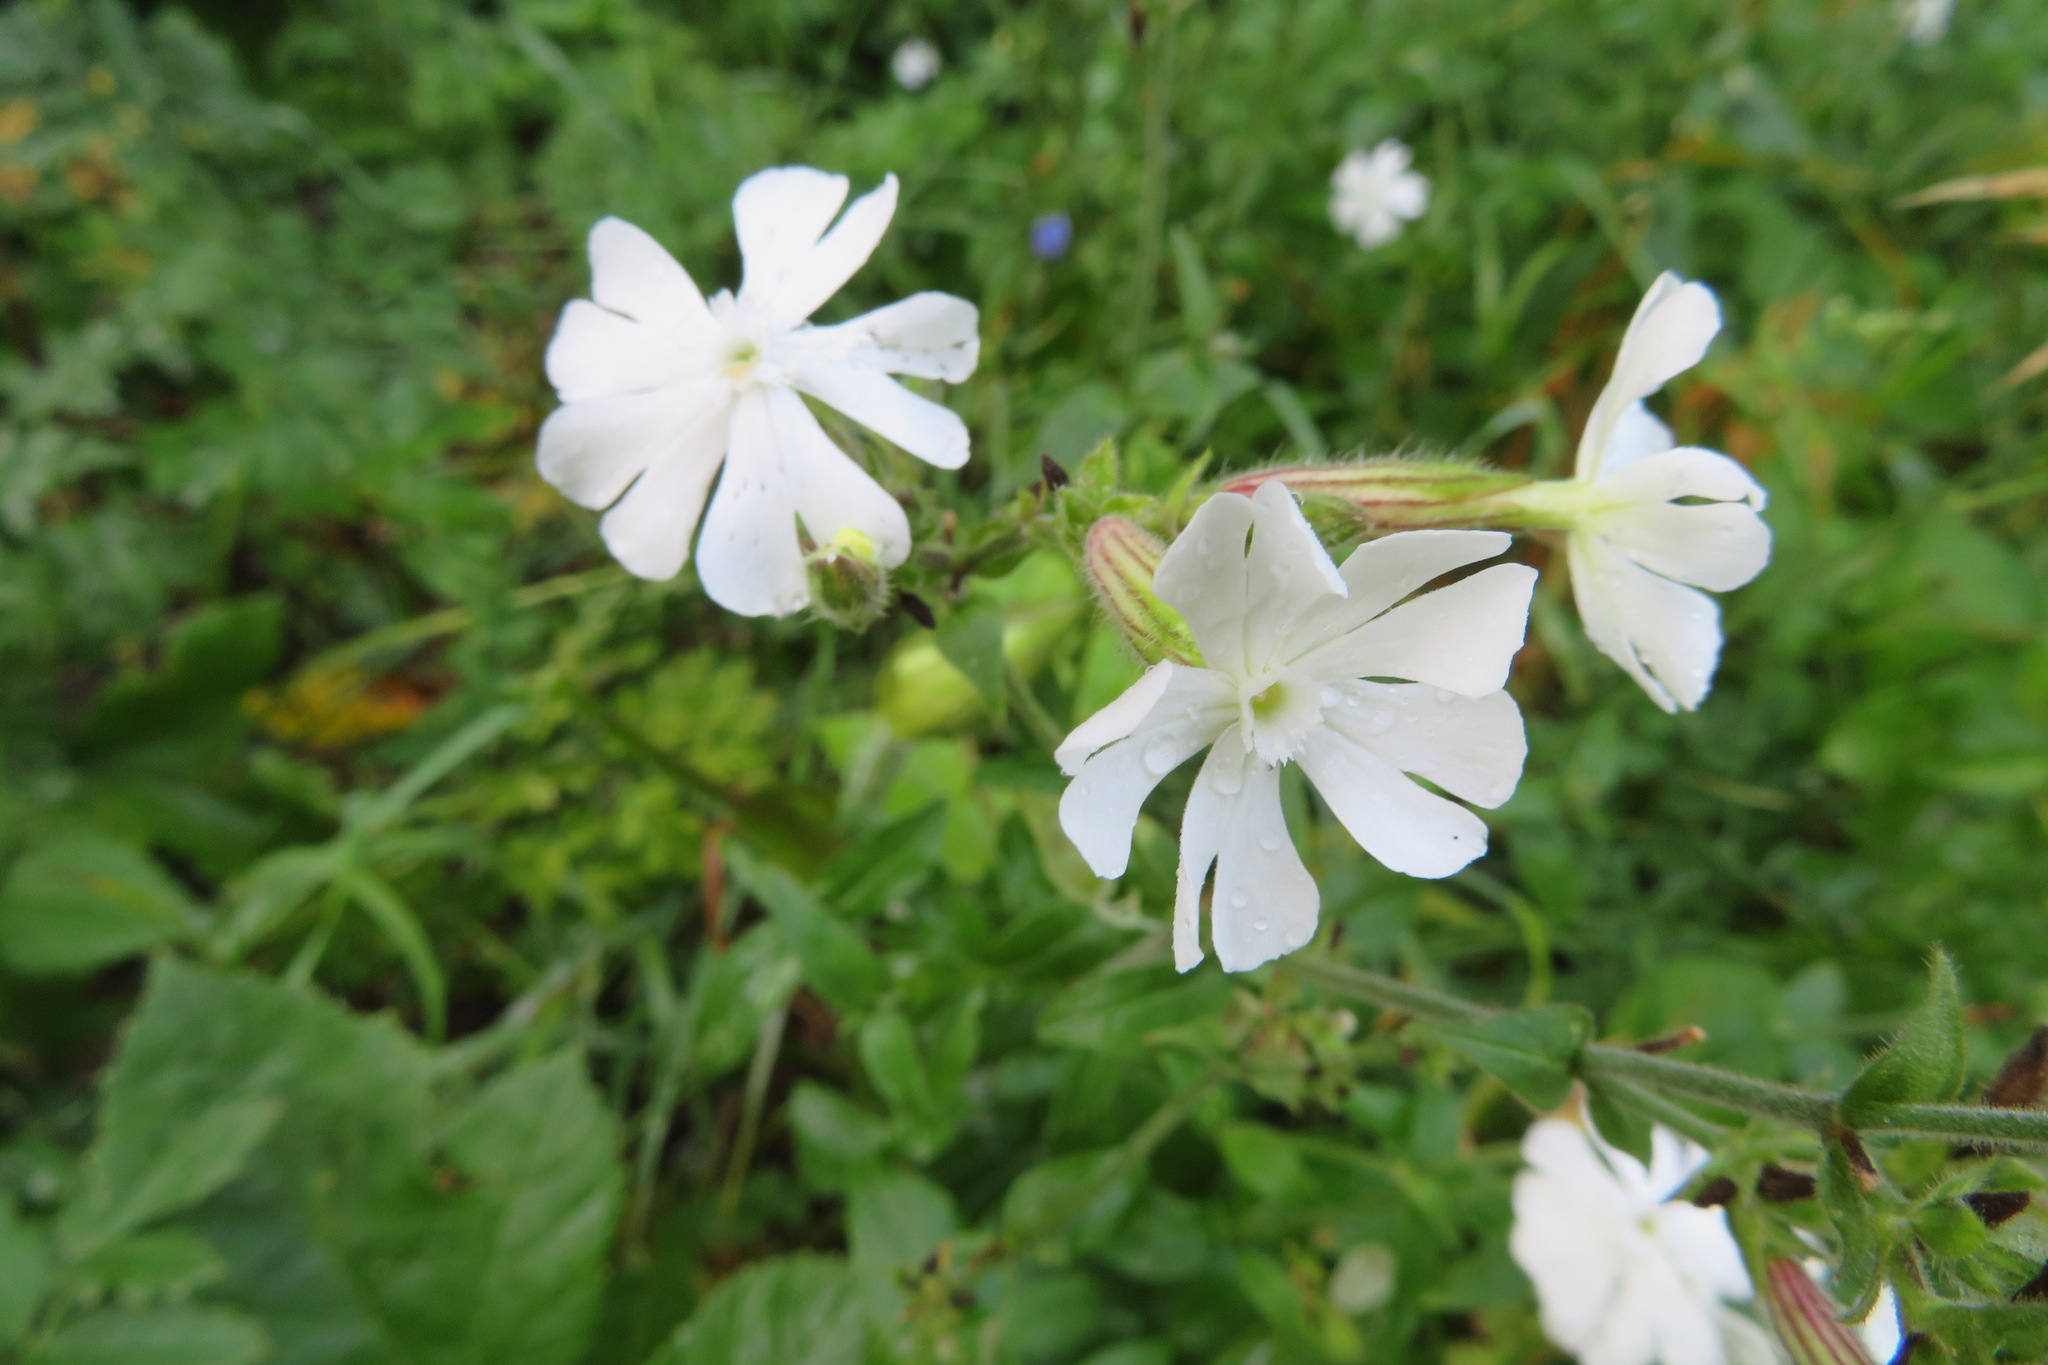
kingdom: Plantae
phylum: Tracheophyta
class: Magnoliopsida
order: Caryophyllales
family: Caryophyllaceae
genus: Silene
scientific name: Silene latifolia
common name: White campion
